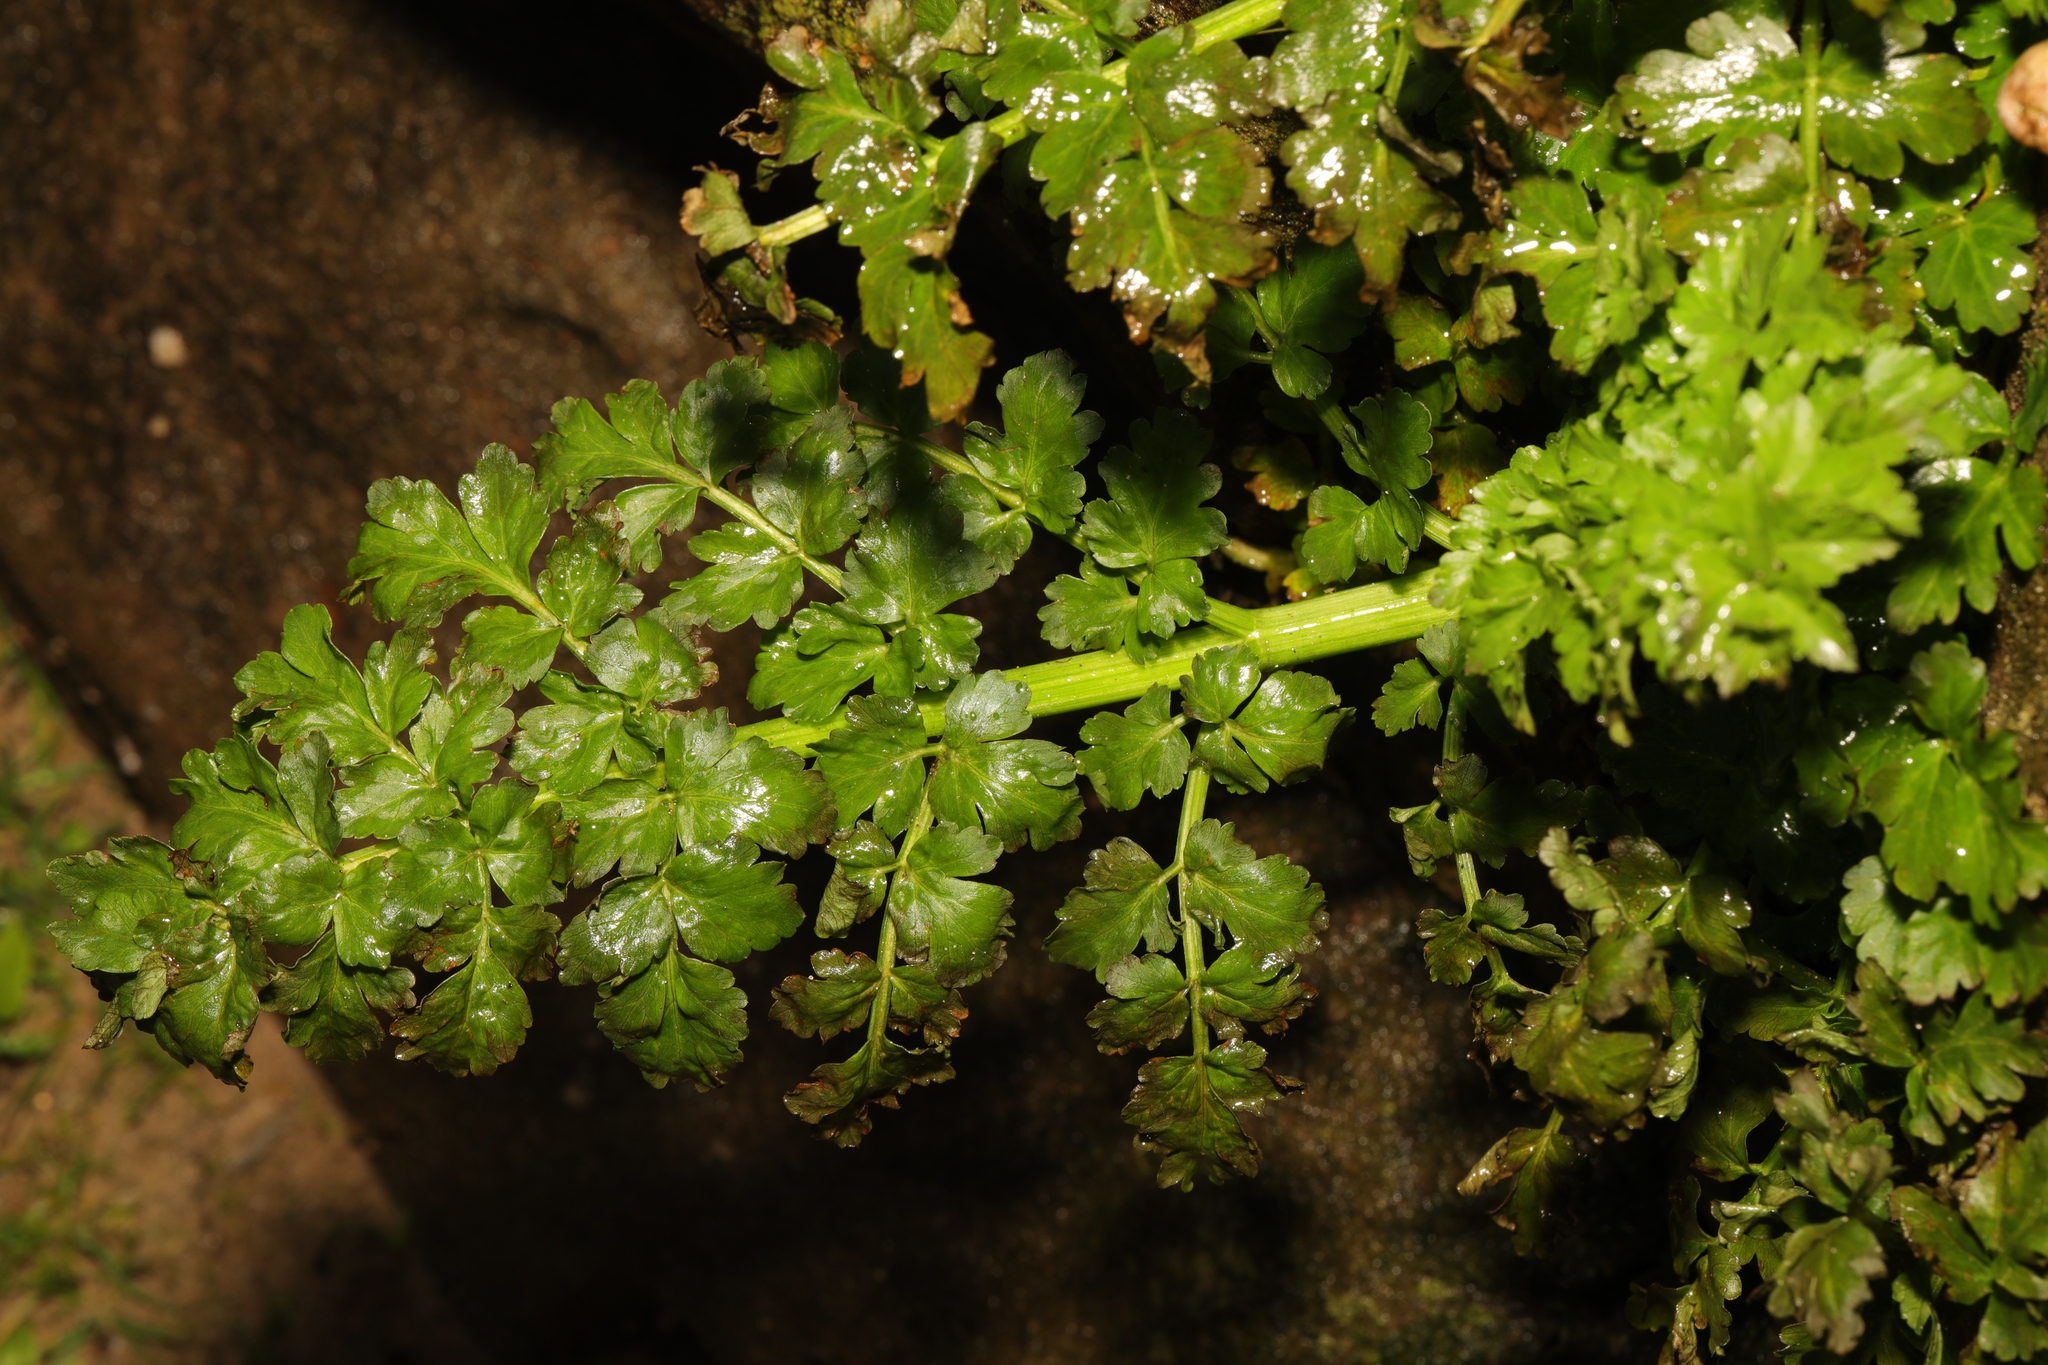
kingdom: Plantae
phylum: Tracheophyta
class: Magnoliopsida
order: Apiales
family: Apiaceae
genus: Oenanthe
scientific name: Oenanthe crocata
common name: Hemlock water-dropwort
